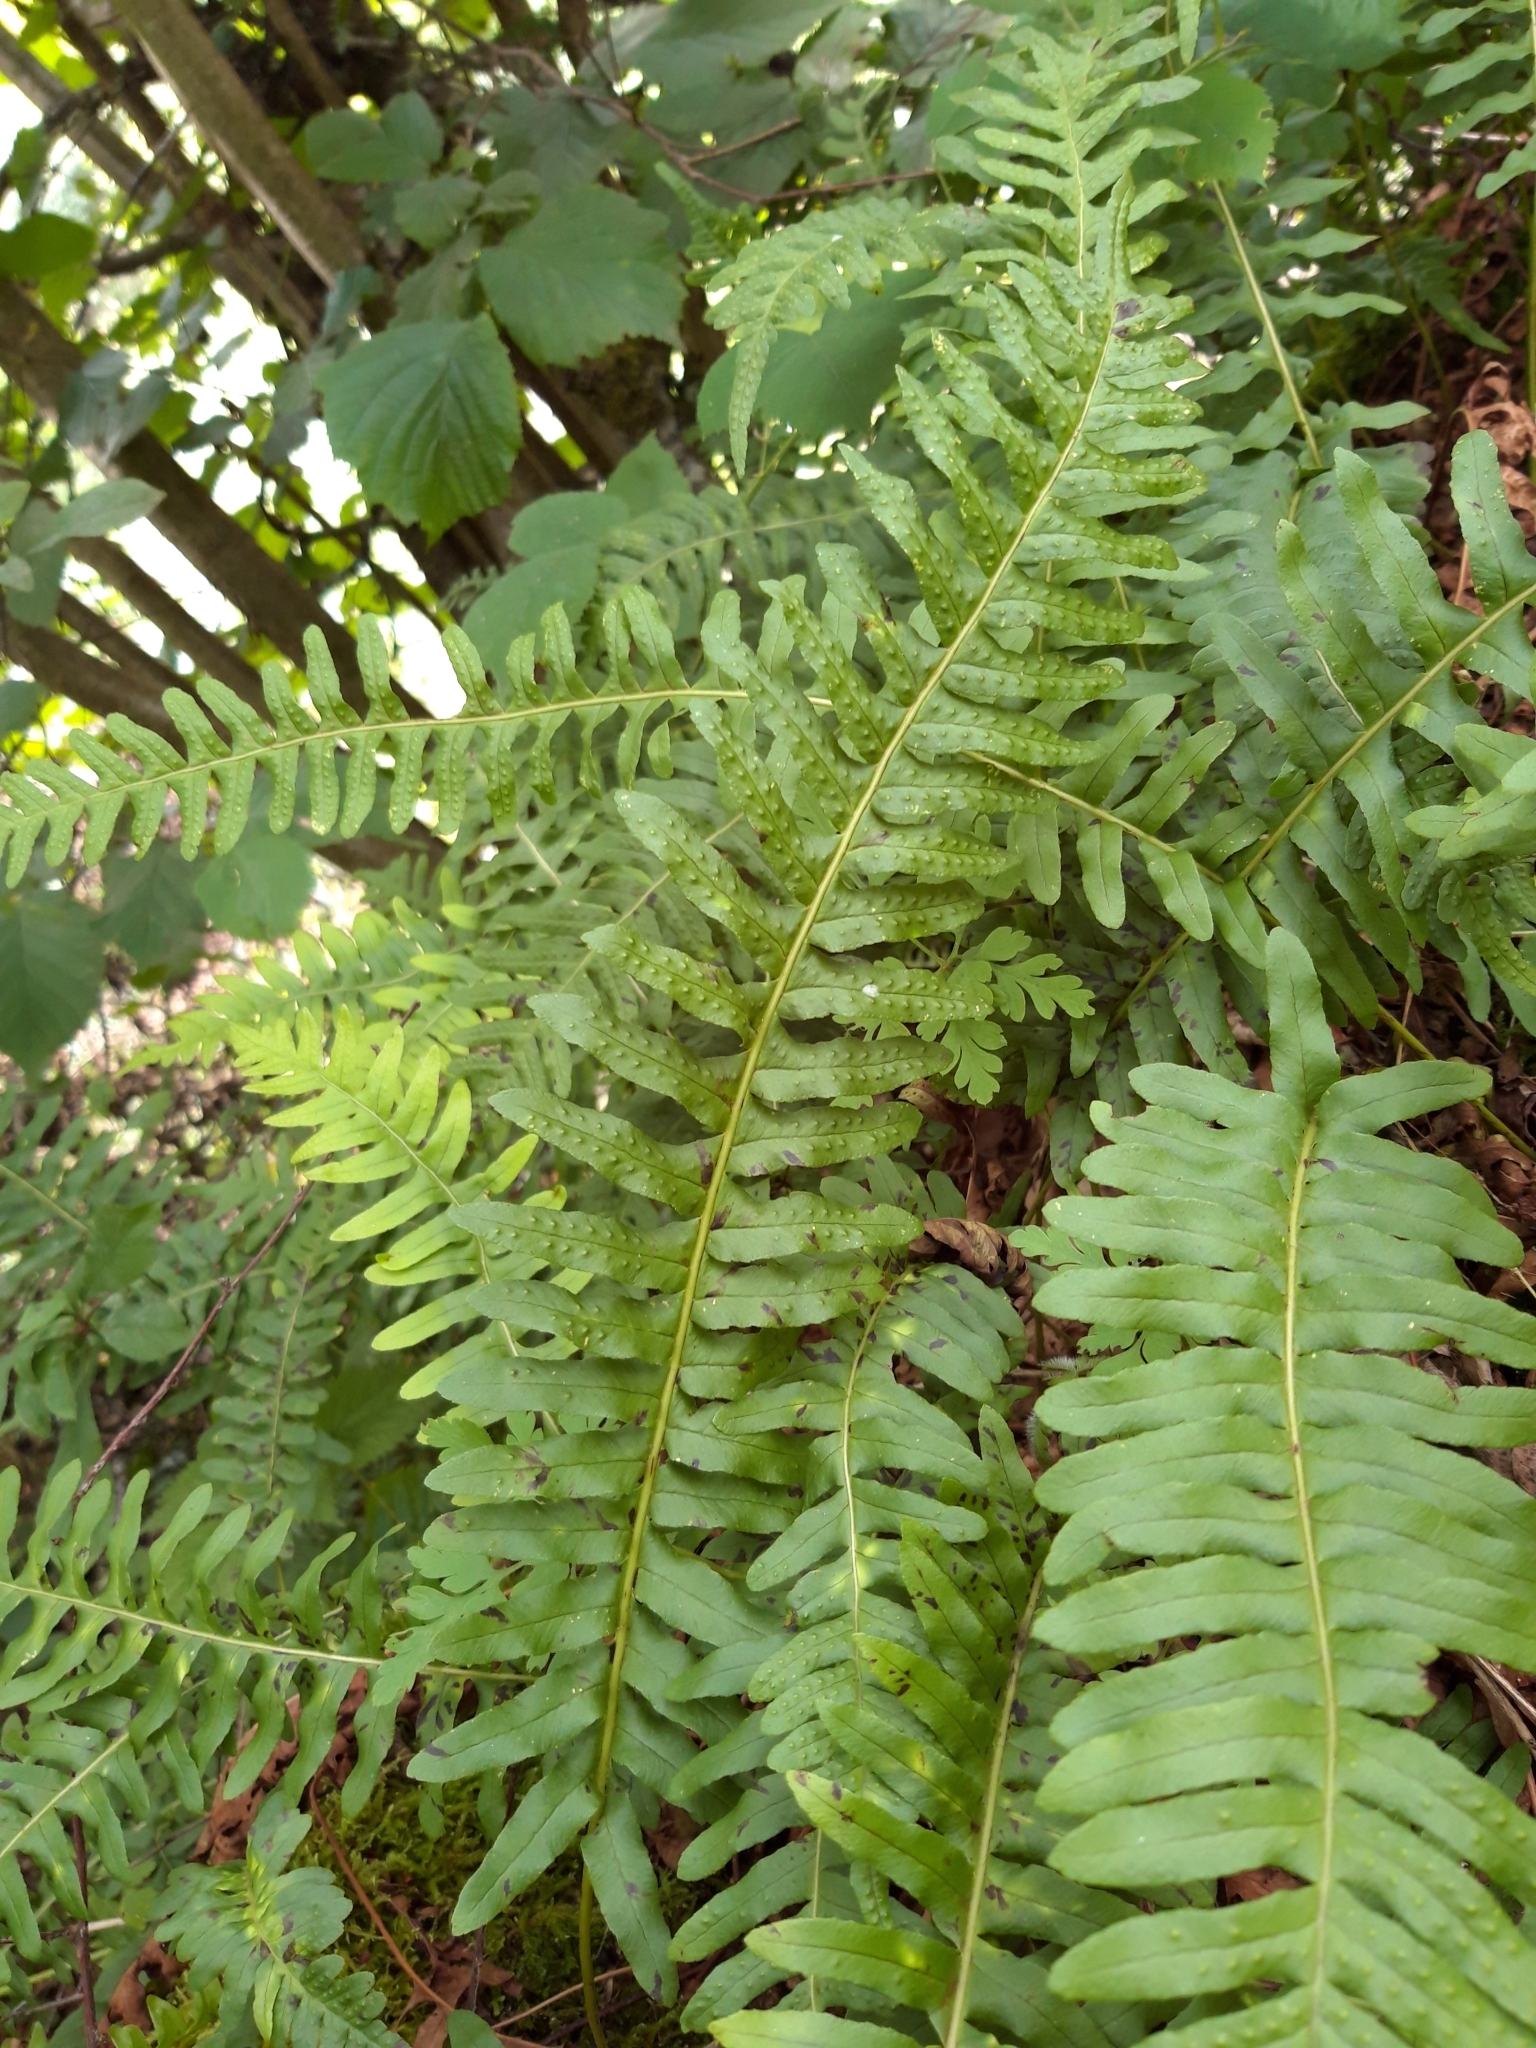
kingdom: Plantae
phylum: Tracheophyta
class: Polypodiopsida
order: Polypodiales
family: Polypodiaceae
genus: Polypodium
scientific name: Polypodium vulgare
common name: Common polypody
